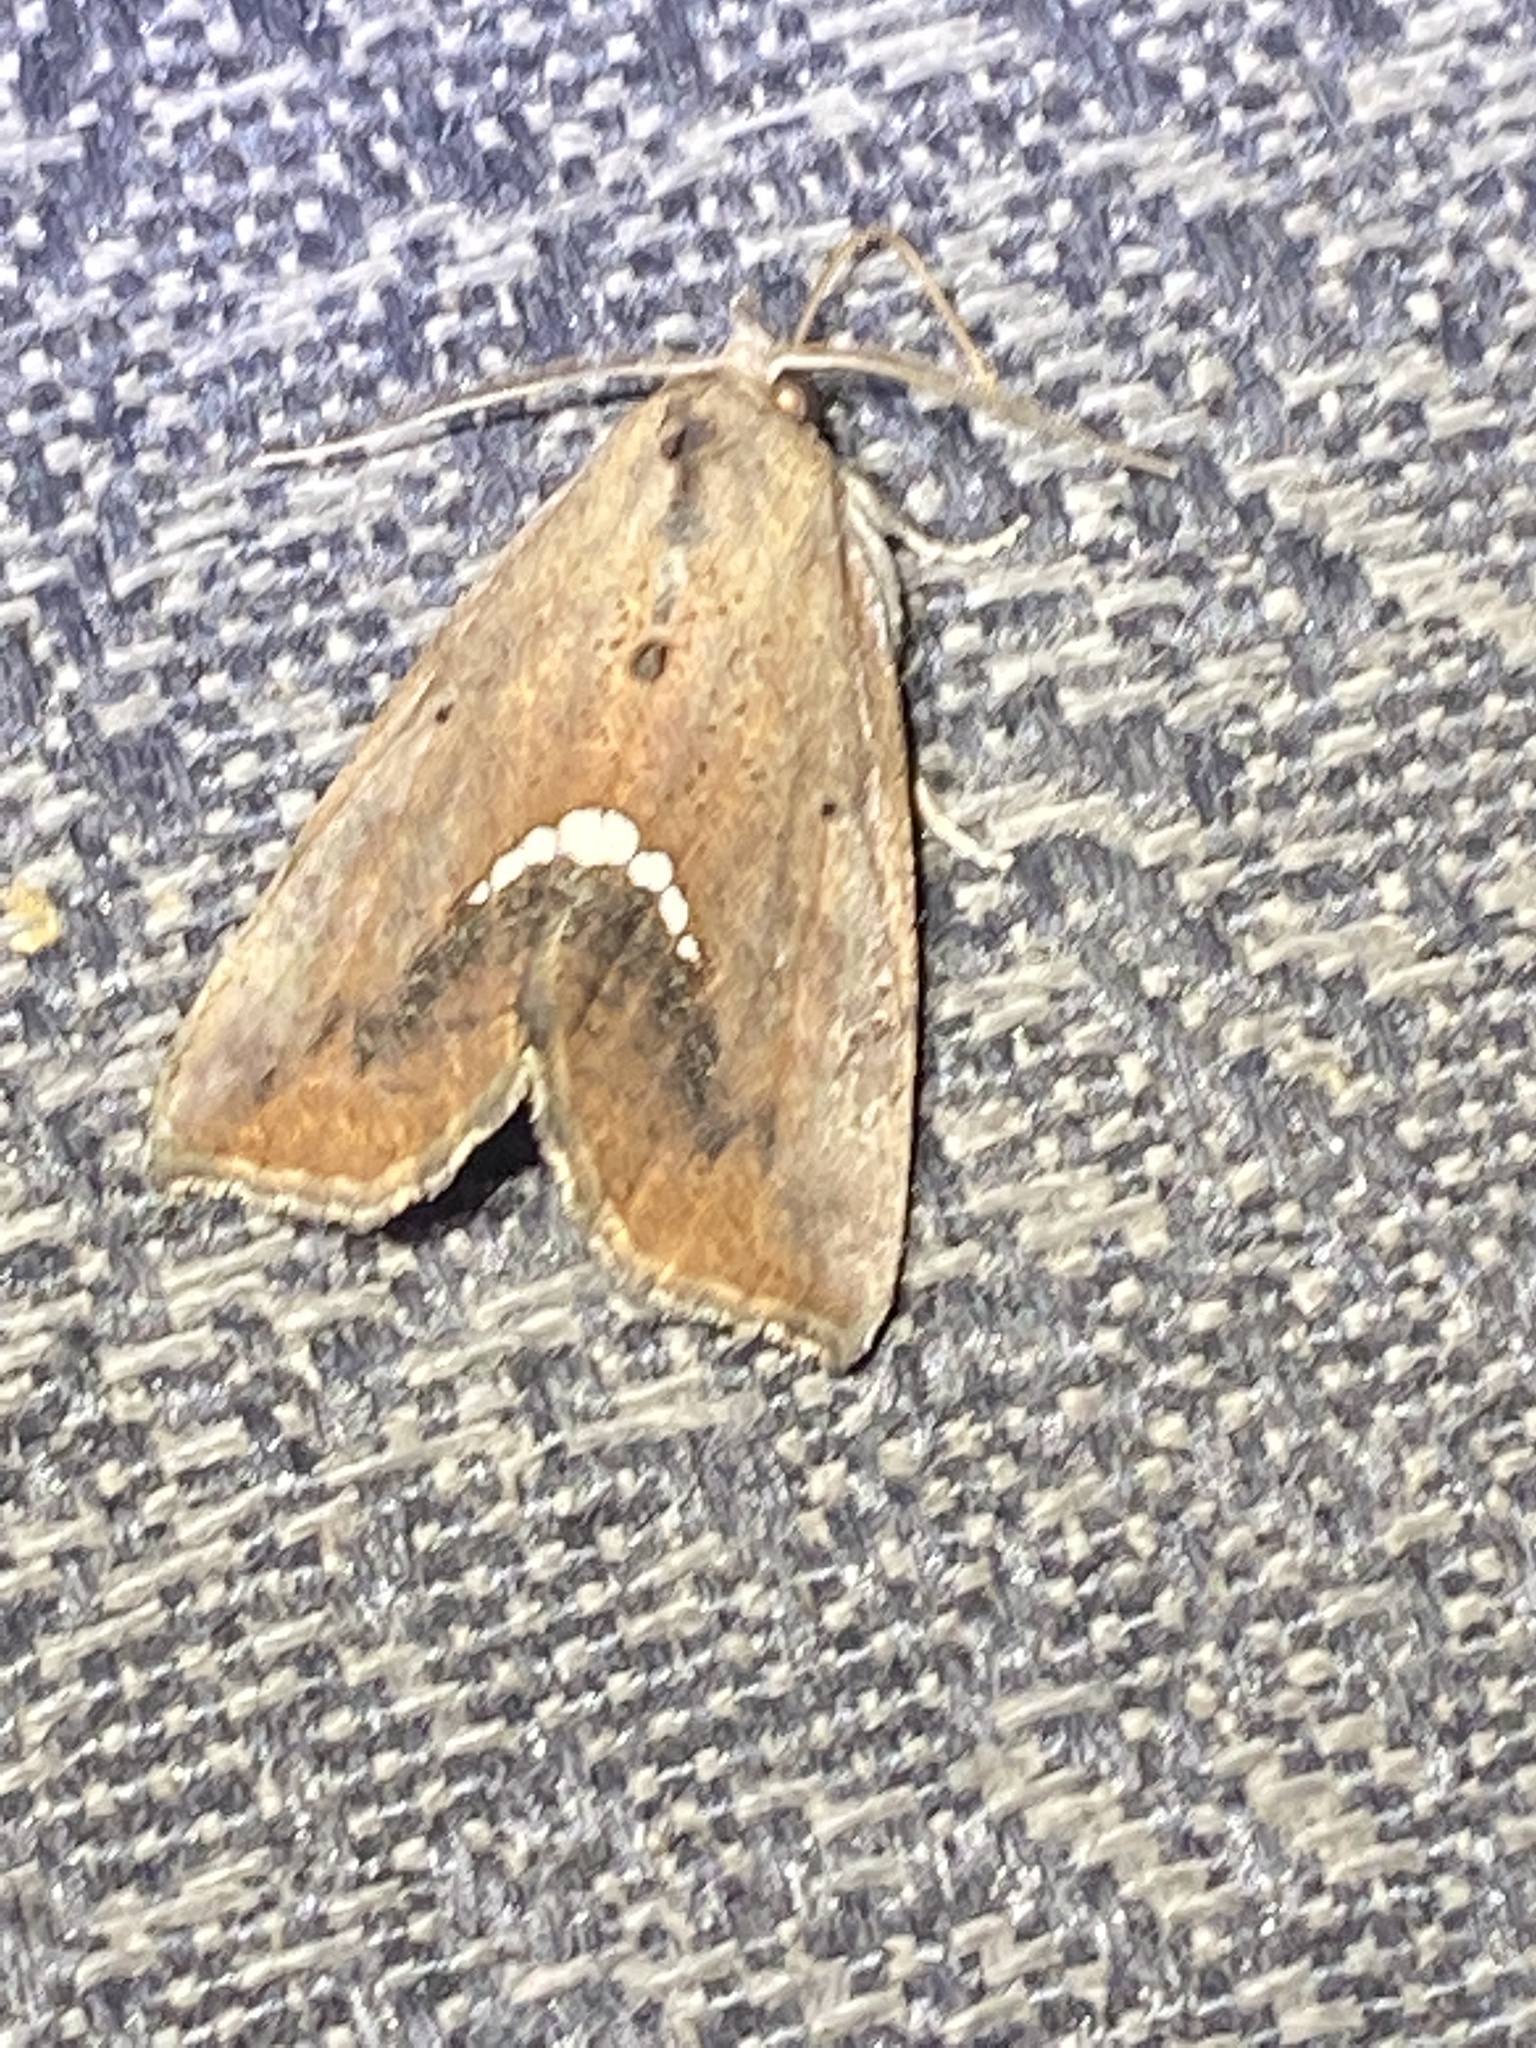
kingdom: Animalia
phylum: Arthropoda
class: Insecta
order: Lepidoptera
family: Erebidae
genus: Hypsoropha
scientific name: Hypsoropha hormos
